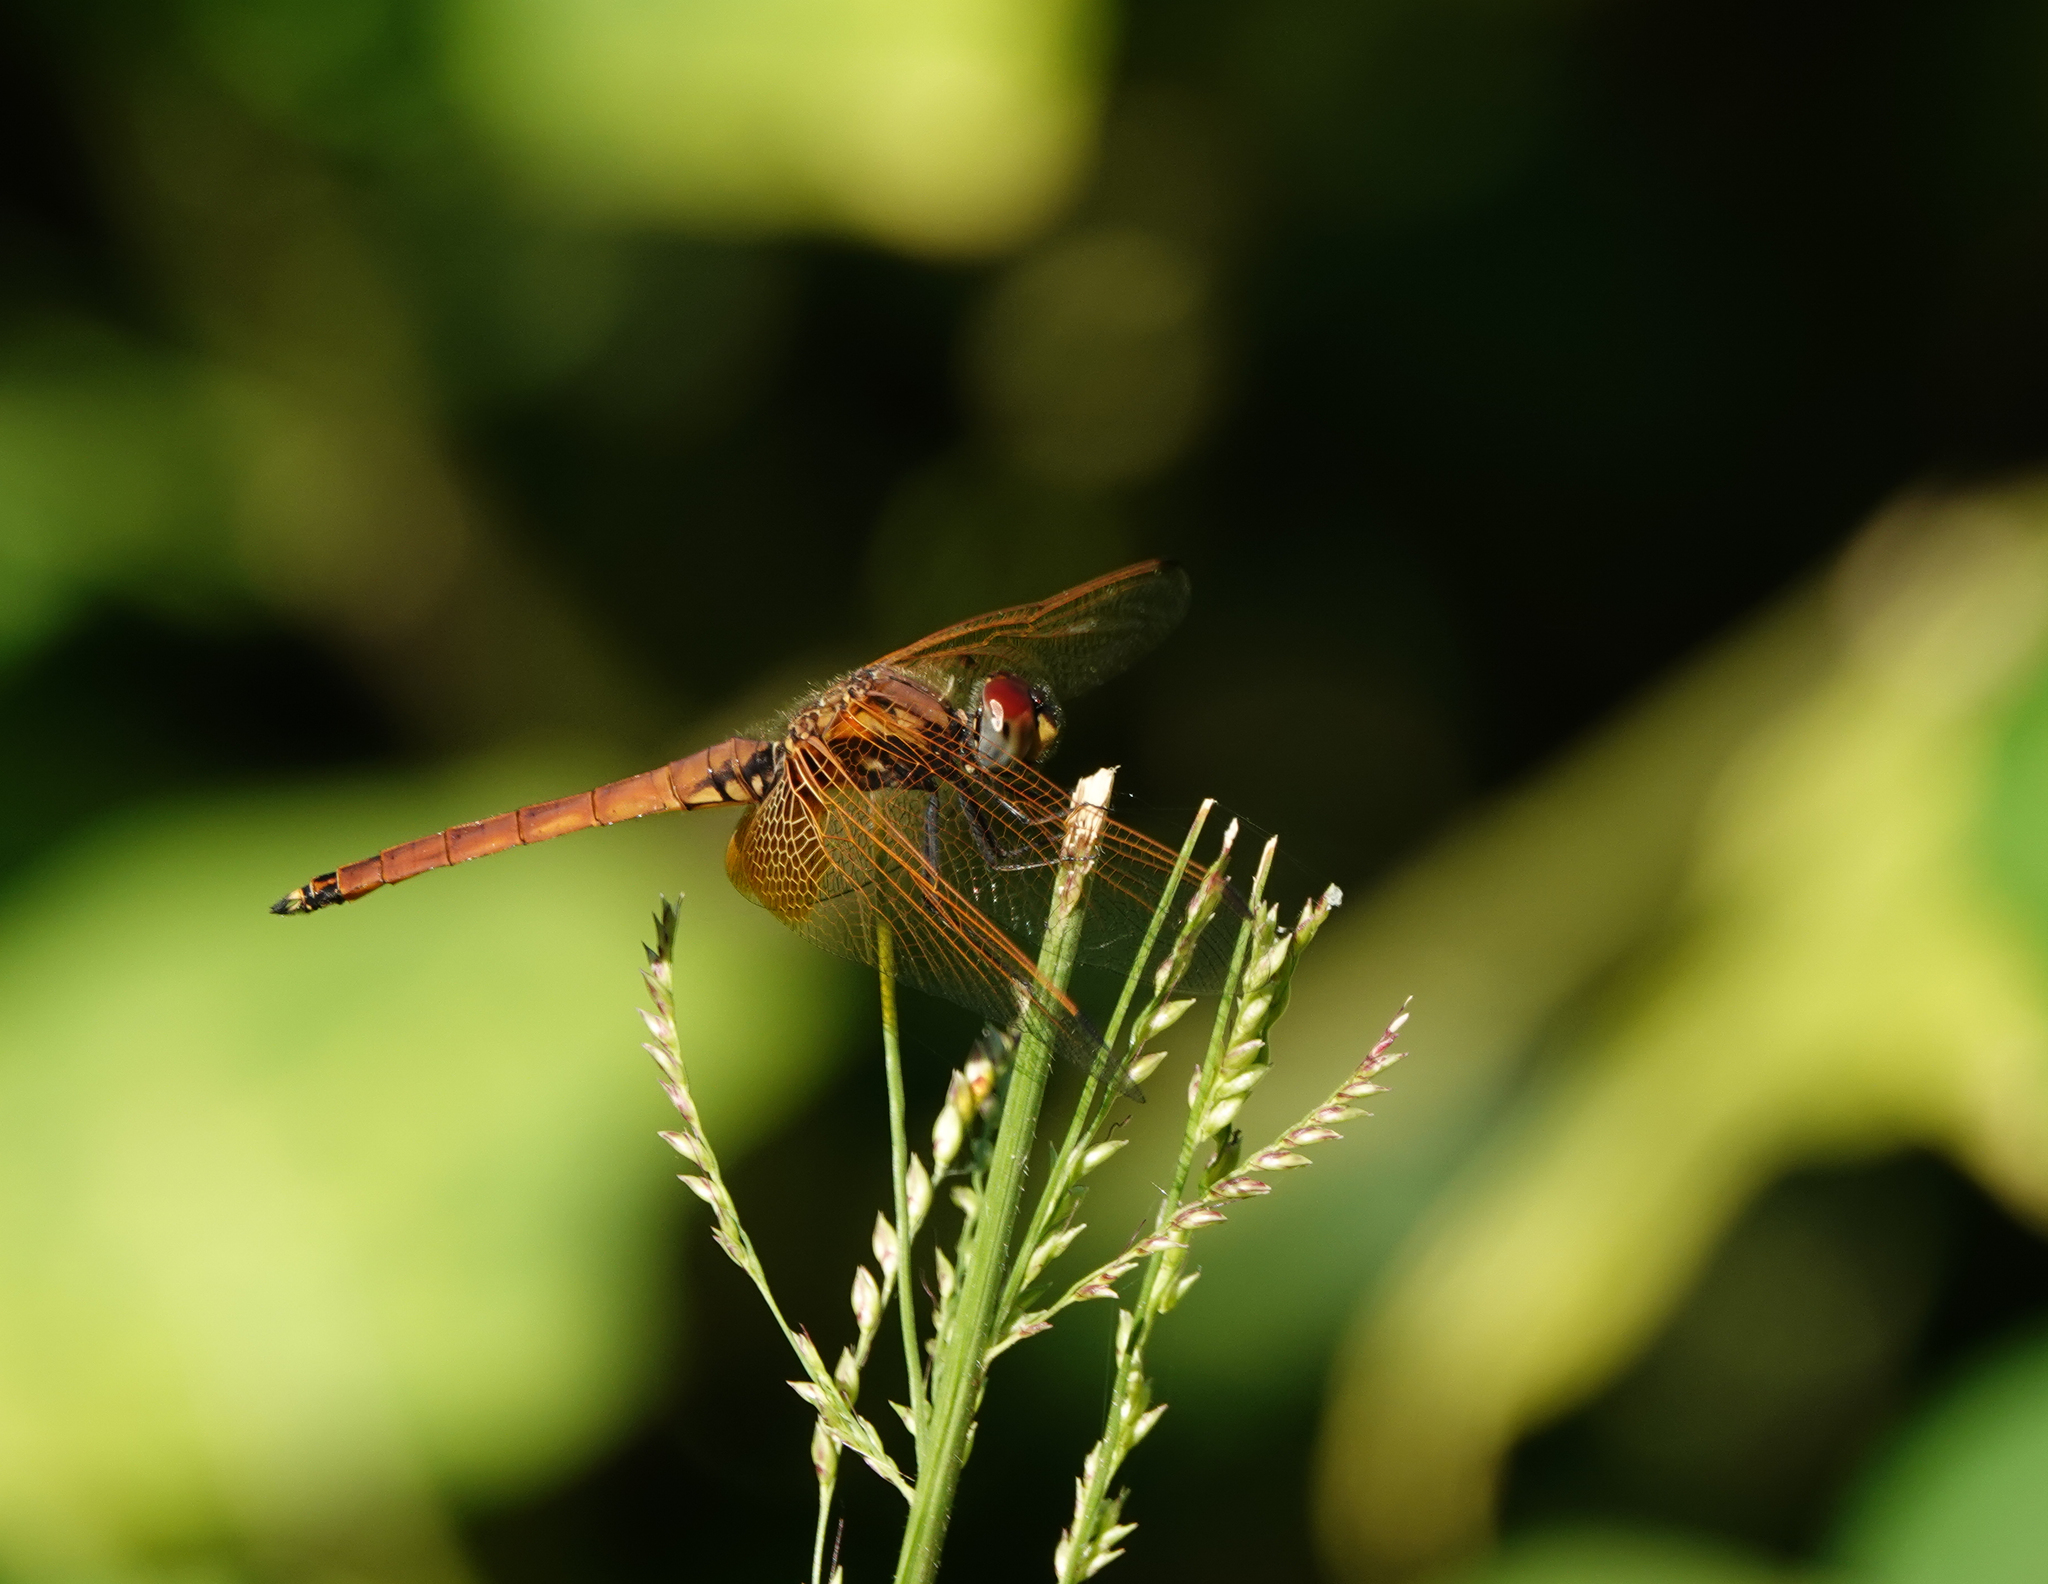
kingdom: Animalia
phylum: Arthropoda
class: Insecta
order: Odonata
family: Libellulidae
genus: Trithemis
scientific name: Trithemis aurora
